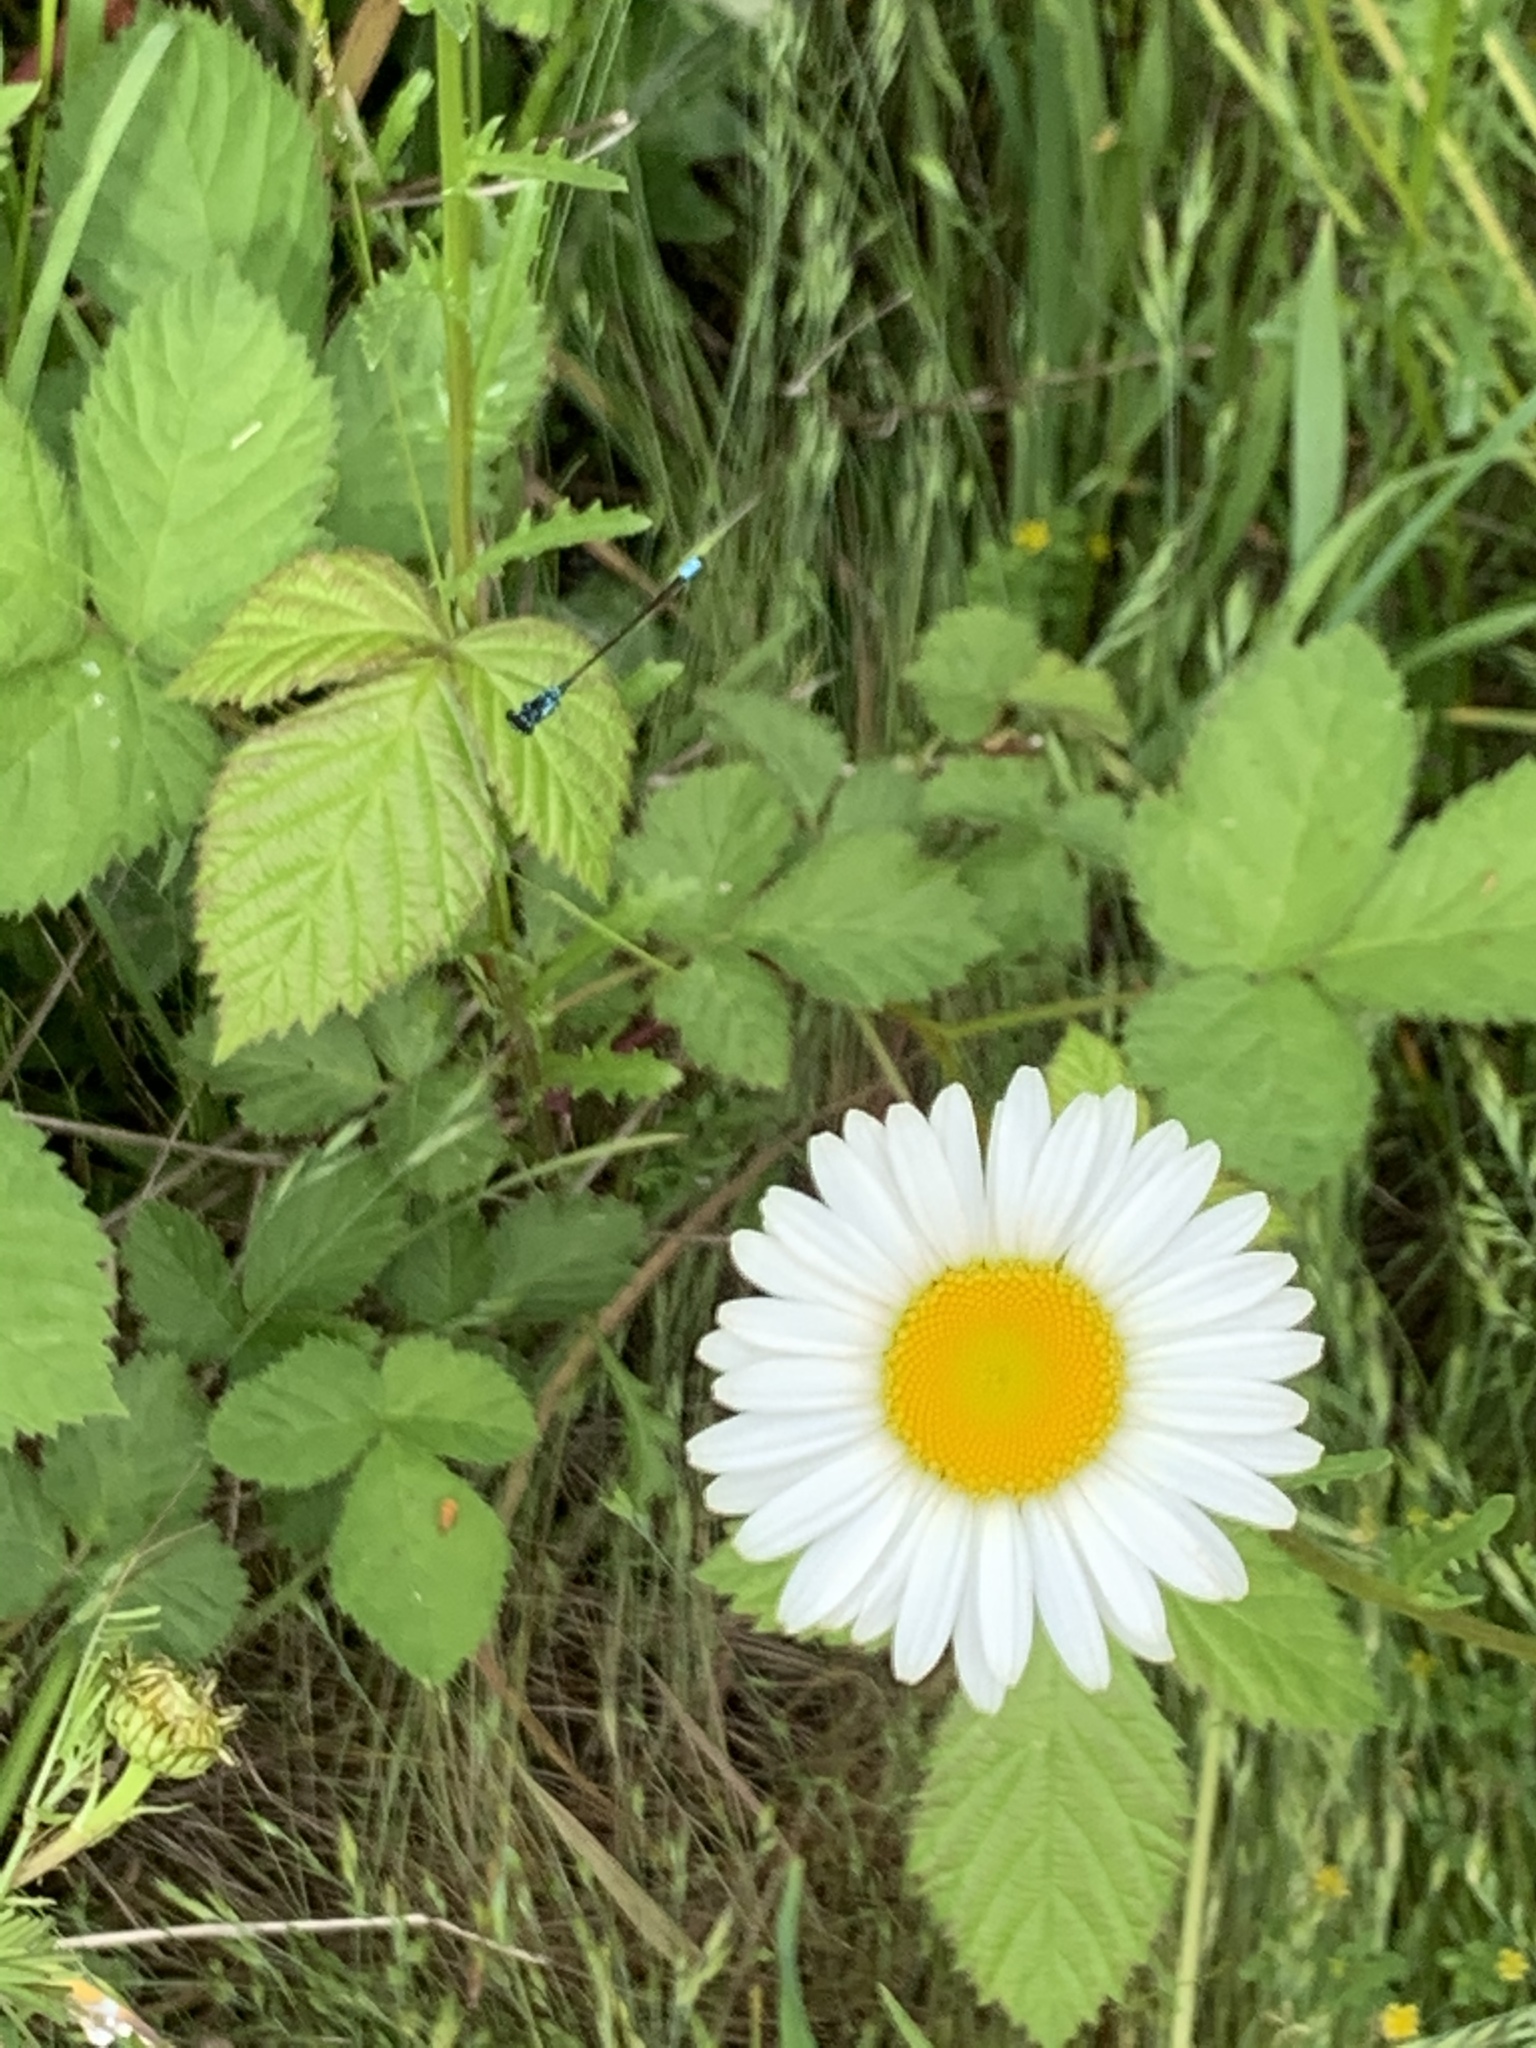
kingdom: Animalia
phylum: Arthropoda
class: Insecta
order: Odonata
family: Coenagrionidae
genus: Ischnura
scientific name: Ischnura cervula
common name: Pacific forktail
